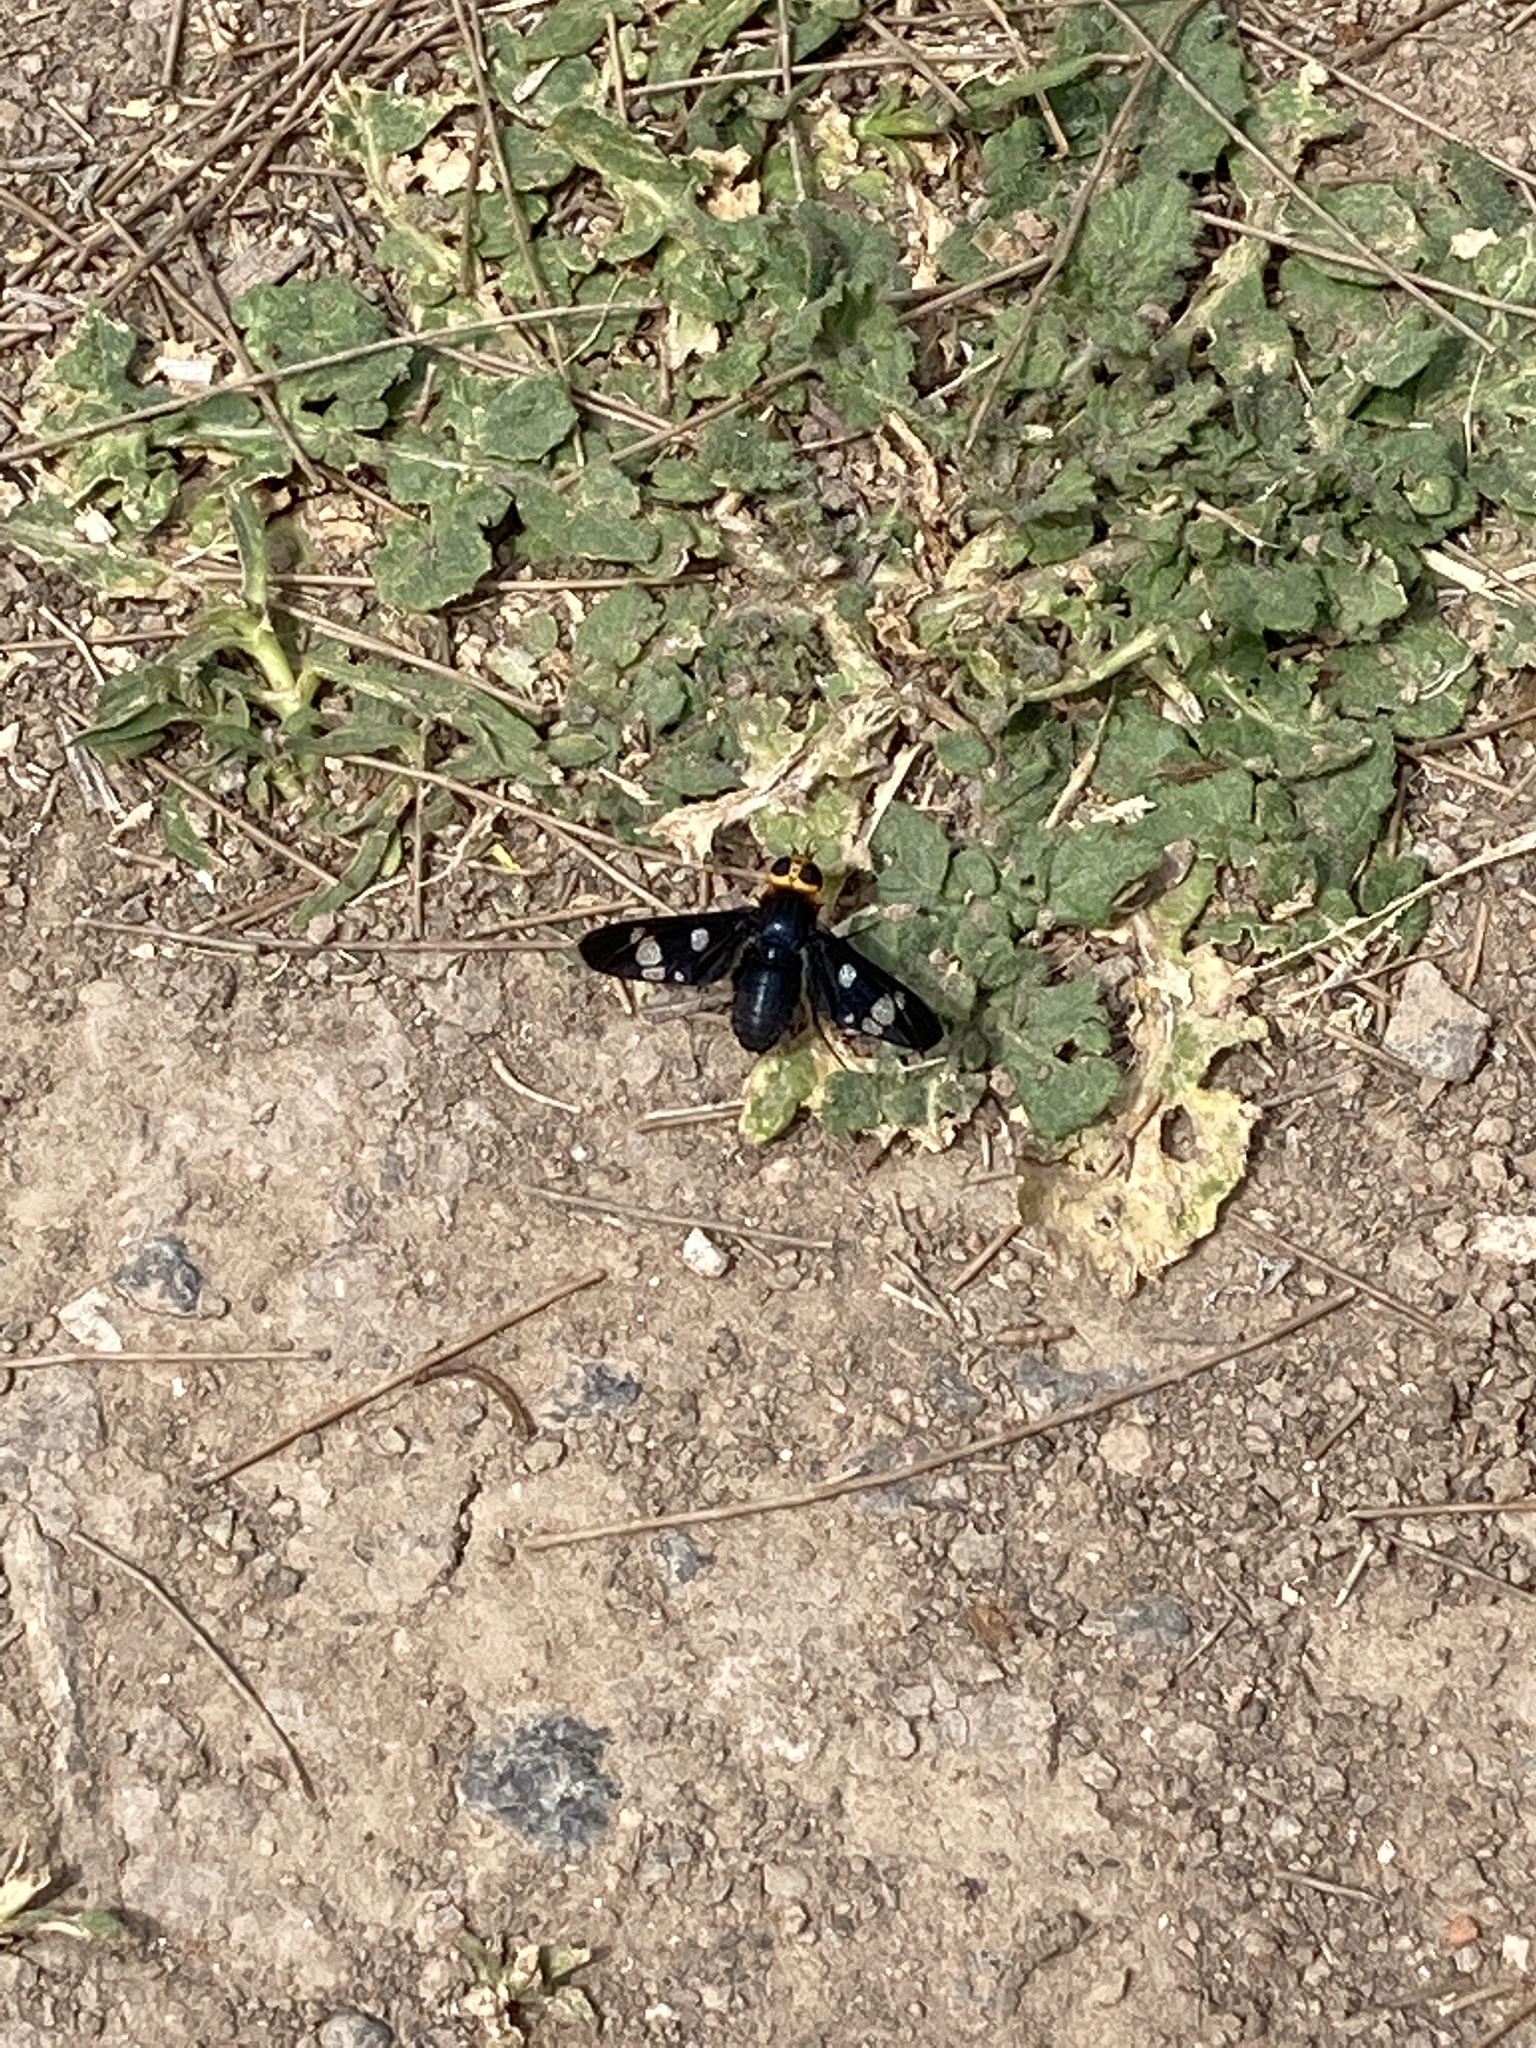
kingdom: Animalia
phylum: Arthropoda
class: Insecta
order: Diptera
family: Bombyliidae
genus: Hyperalonia
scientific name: Hyperalonia morio
